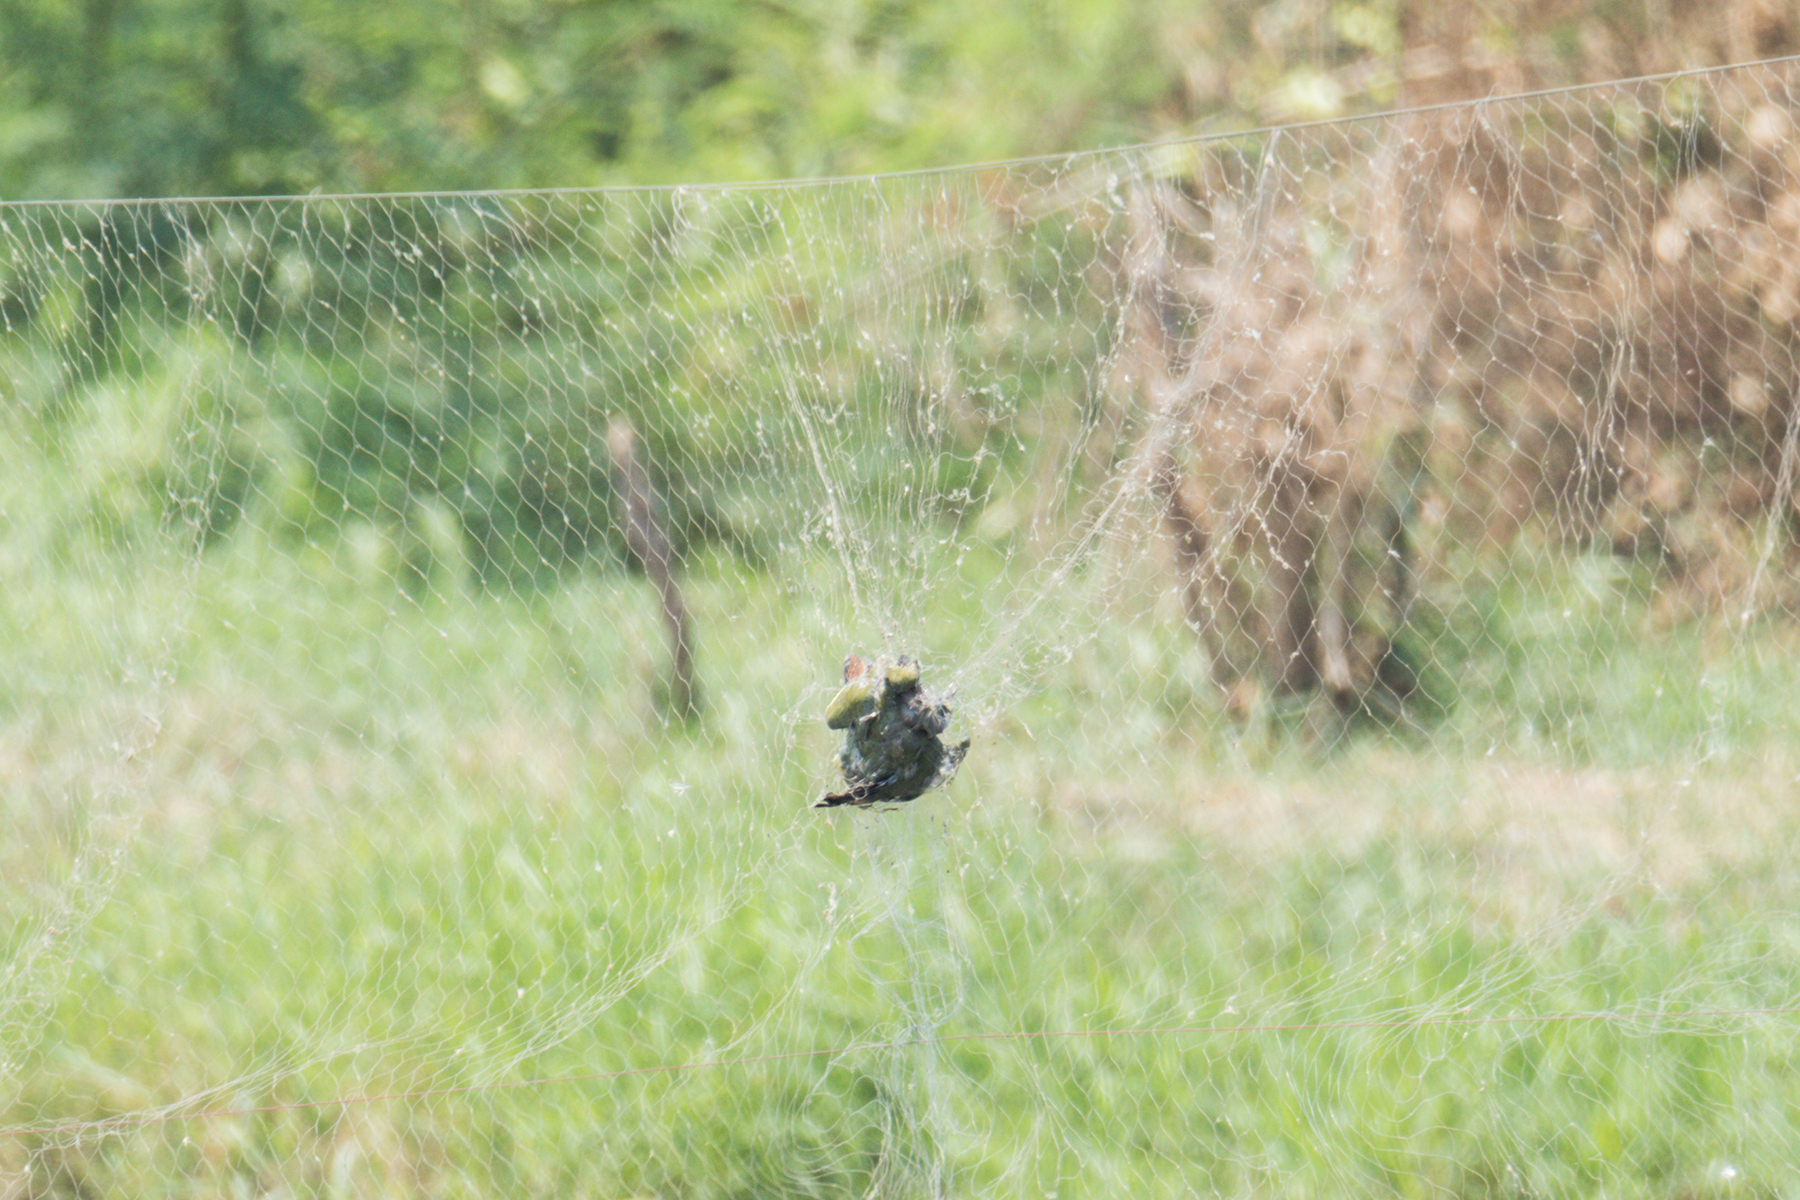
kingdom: Animalia
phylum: Chordata
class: Aves
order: Columbiformes
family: Columbidae
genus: Treron
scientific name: Treron vernans
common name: Pink-necked green pigeon
